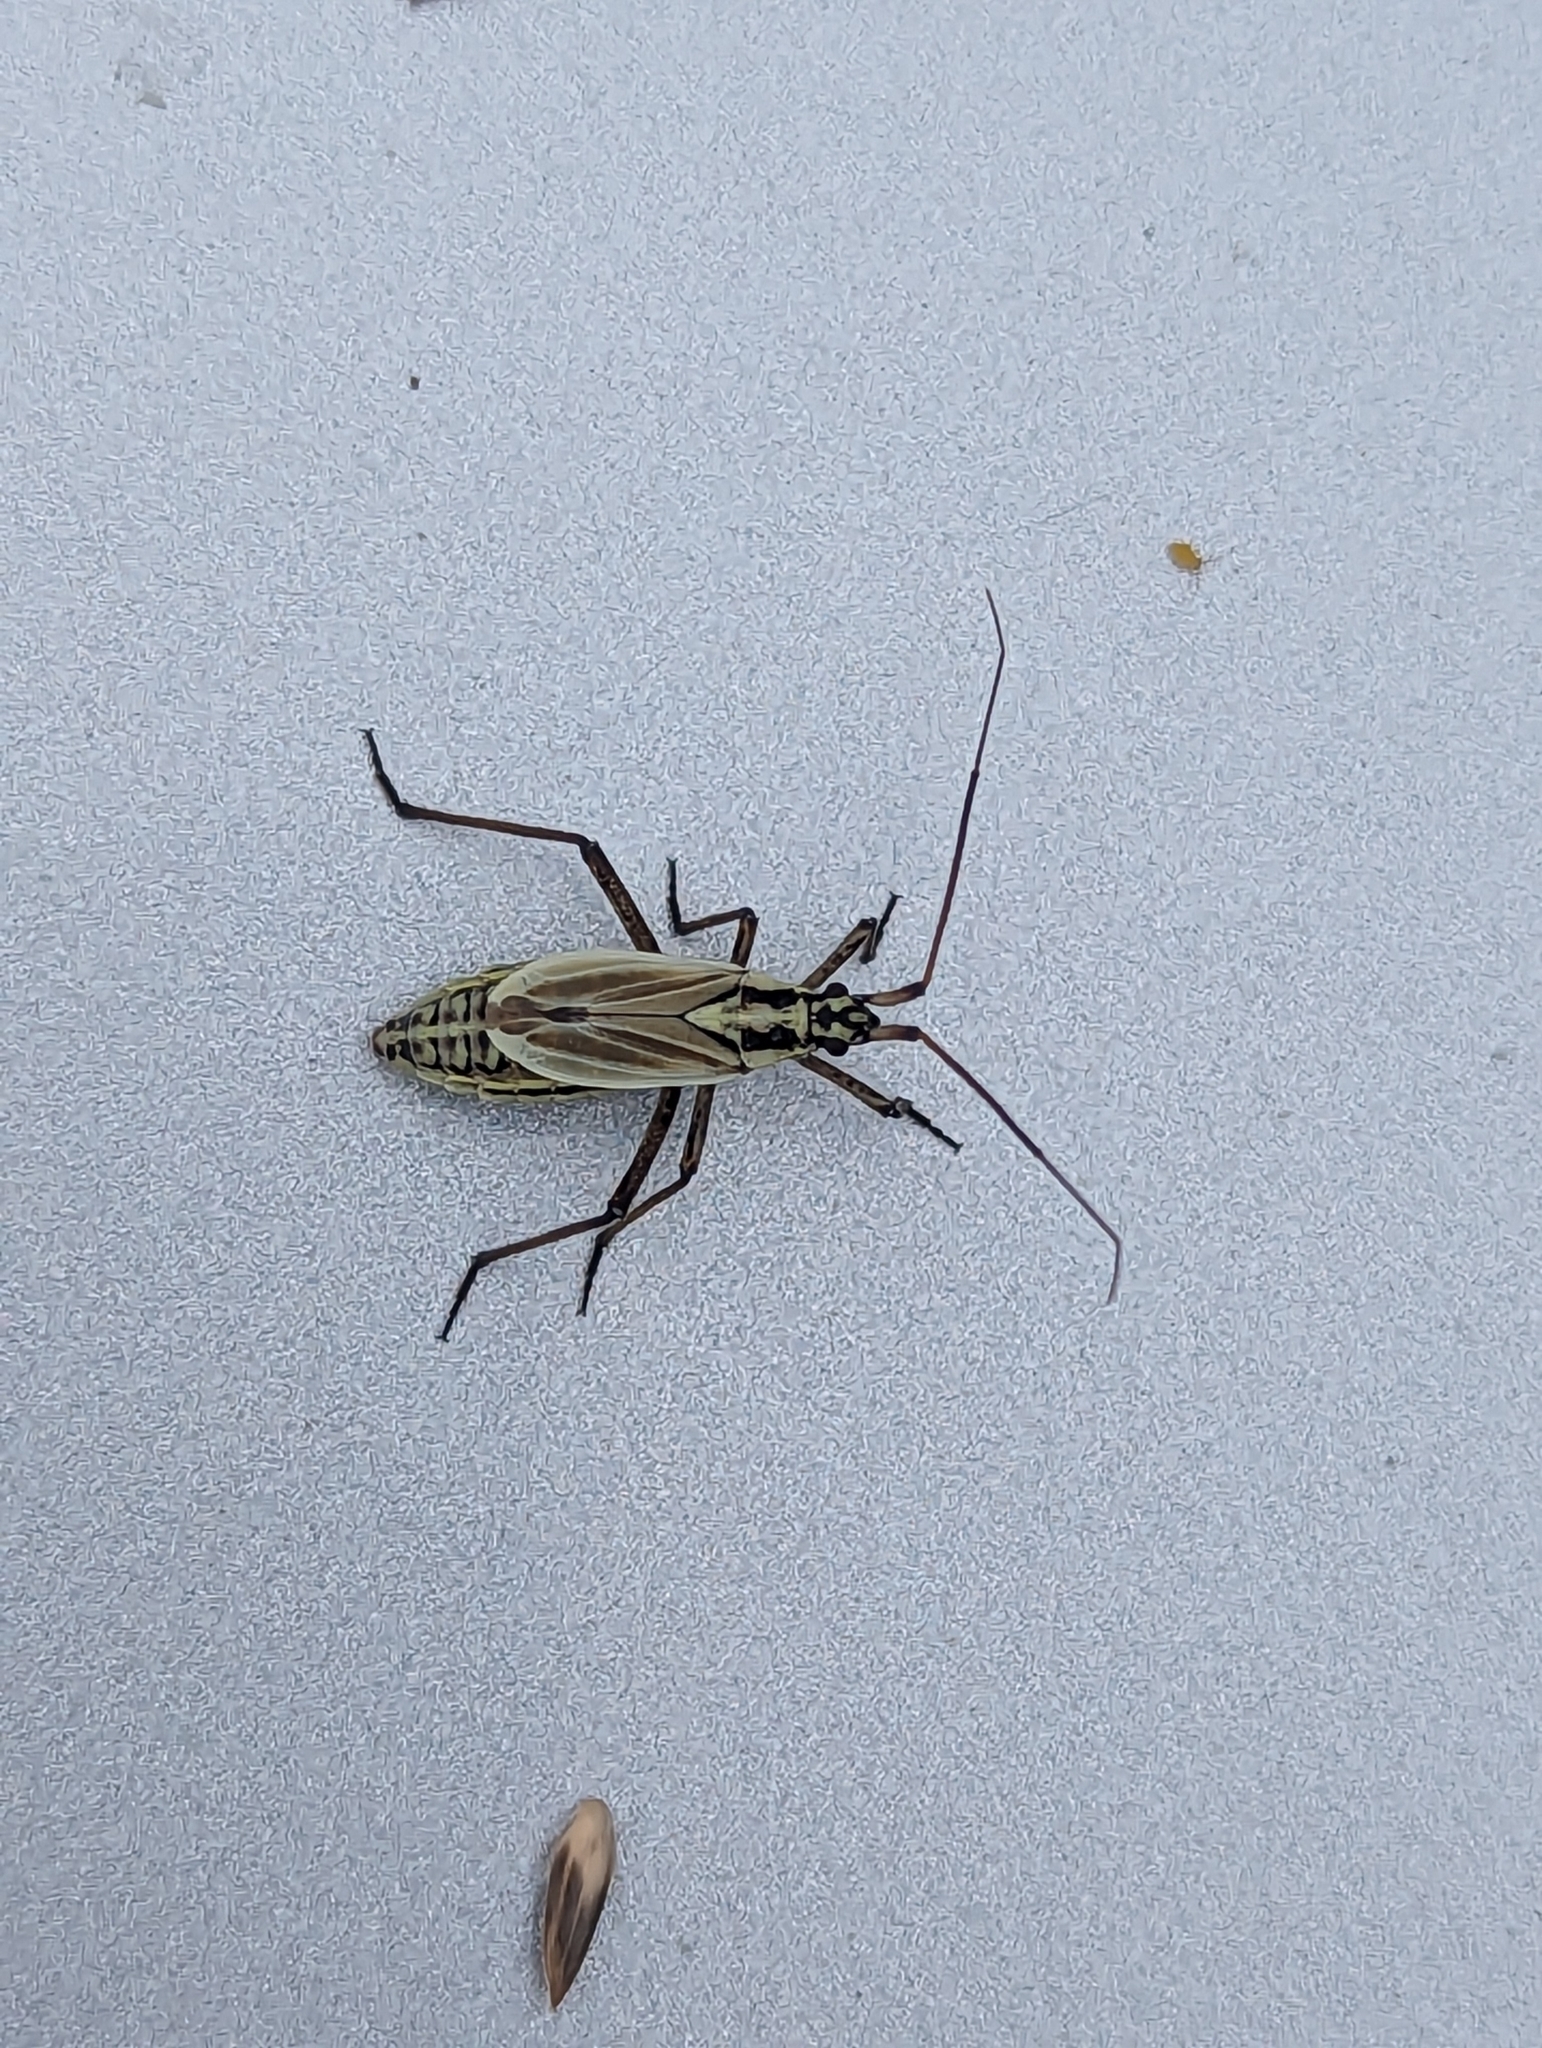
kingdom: Animalia
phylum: Arthropoda
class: Insecta
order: Hemiptera
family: Miridae
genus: Leptopterna
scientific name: Leptopterna dolabrata
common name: Meadow plant bug
